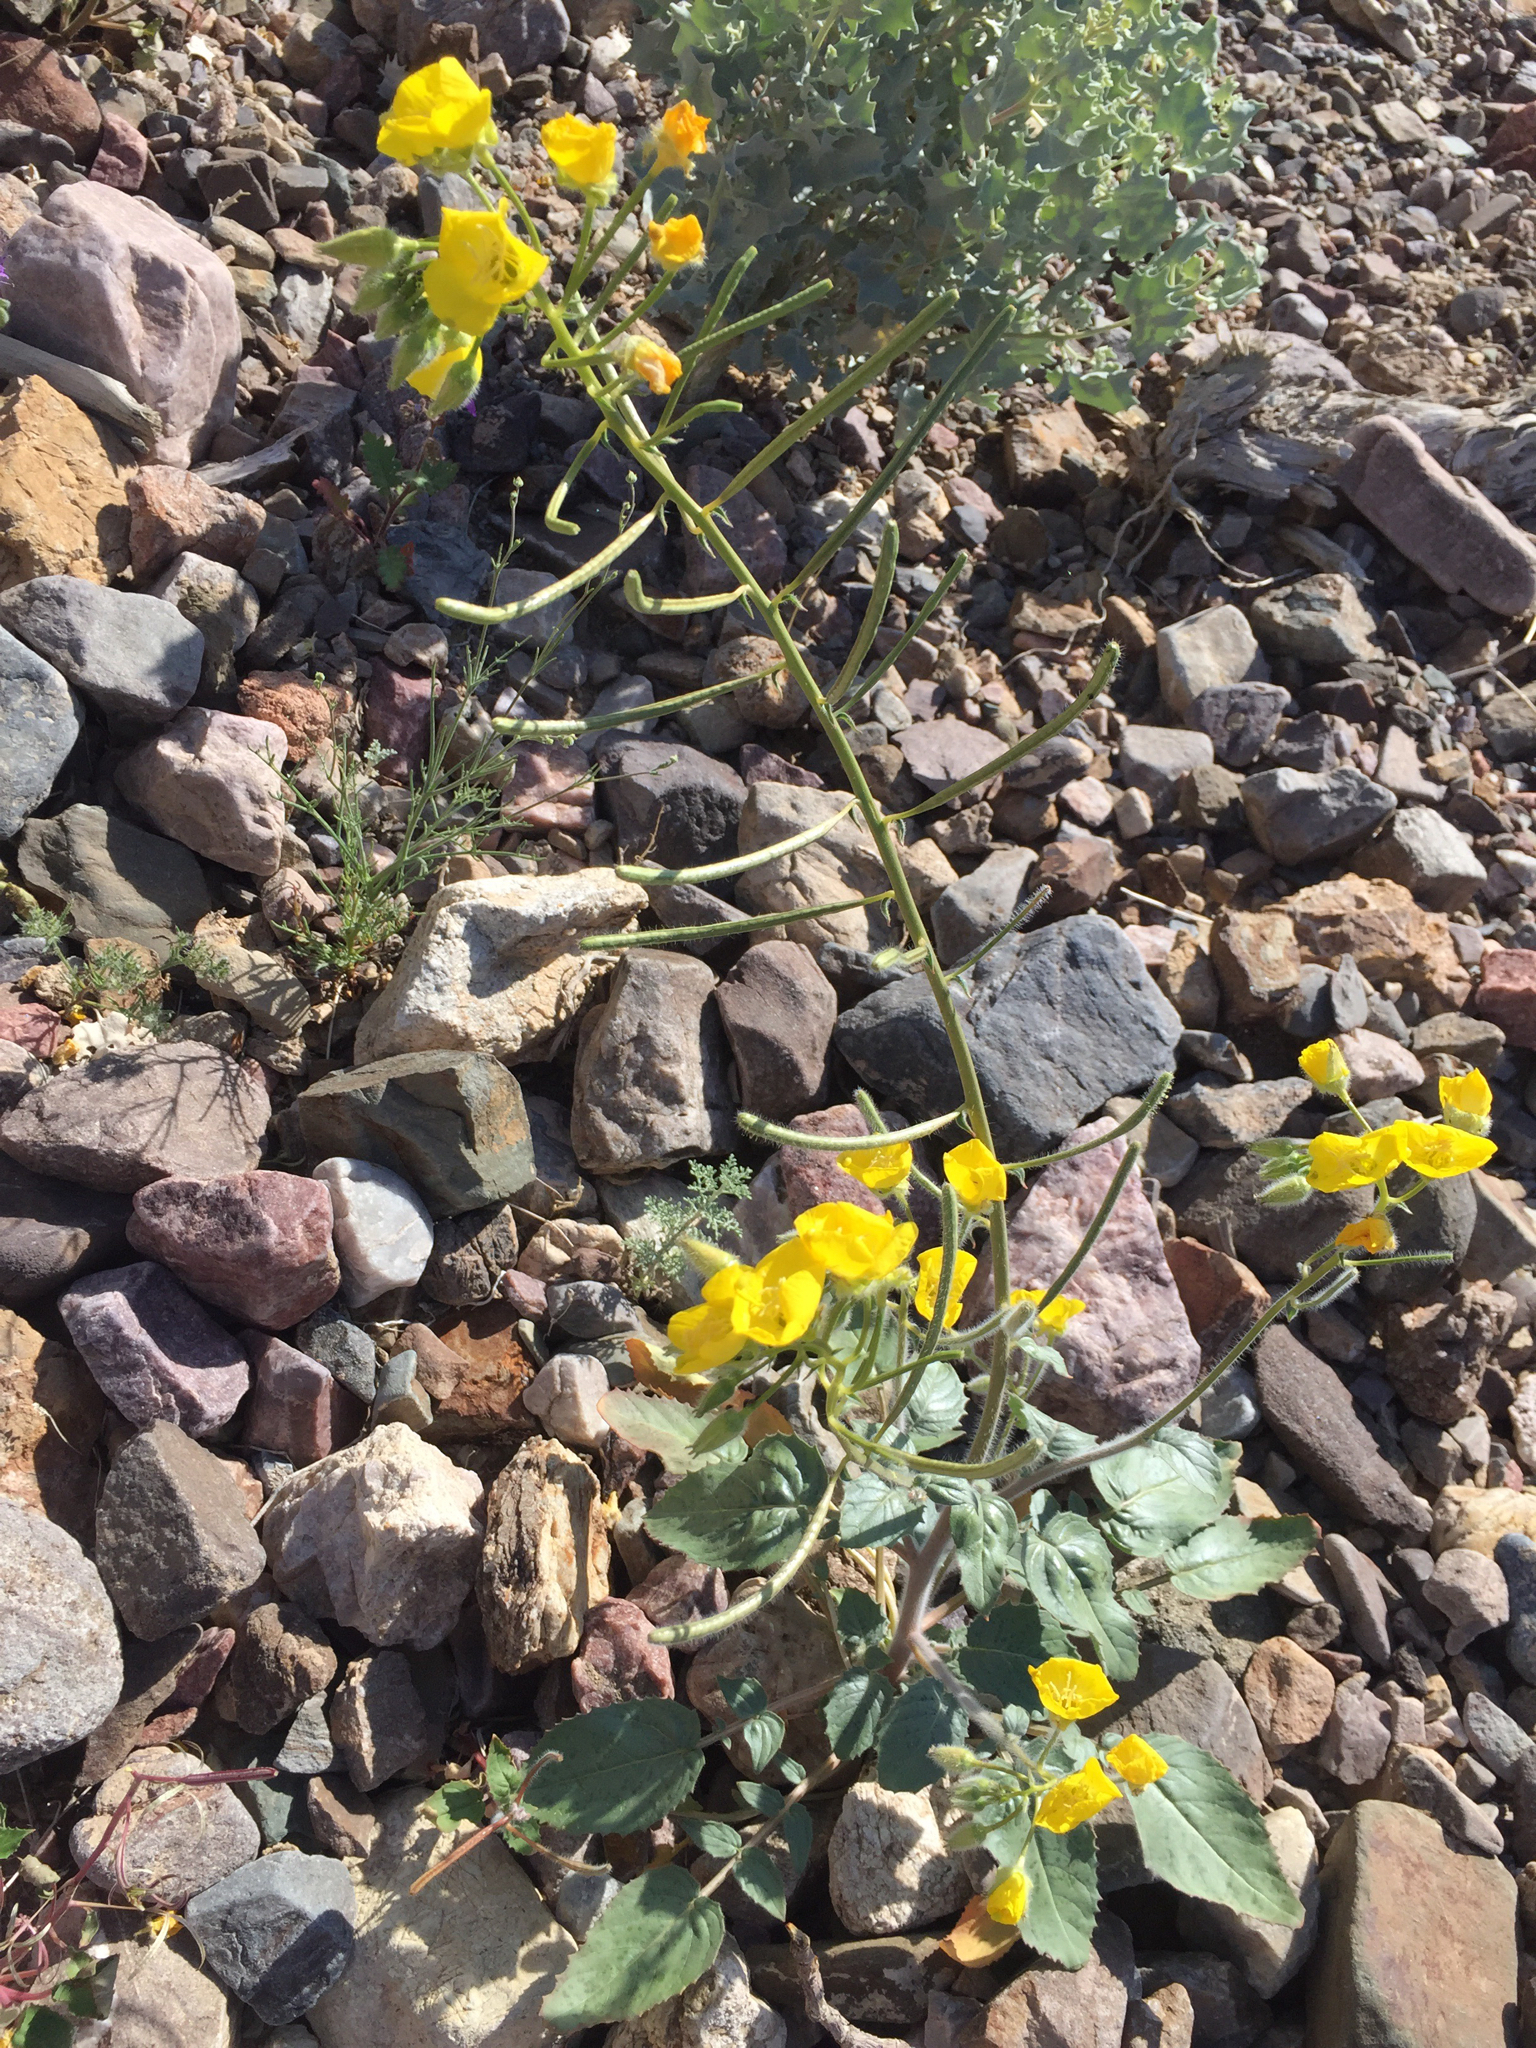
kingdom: Plantae
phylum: Tracheophyta
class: Magnoliopsida
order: Myrtales
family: Onagraceae
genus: Chylismia
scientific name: Chylismia brevipes
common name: Yellow cups
